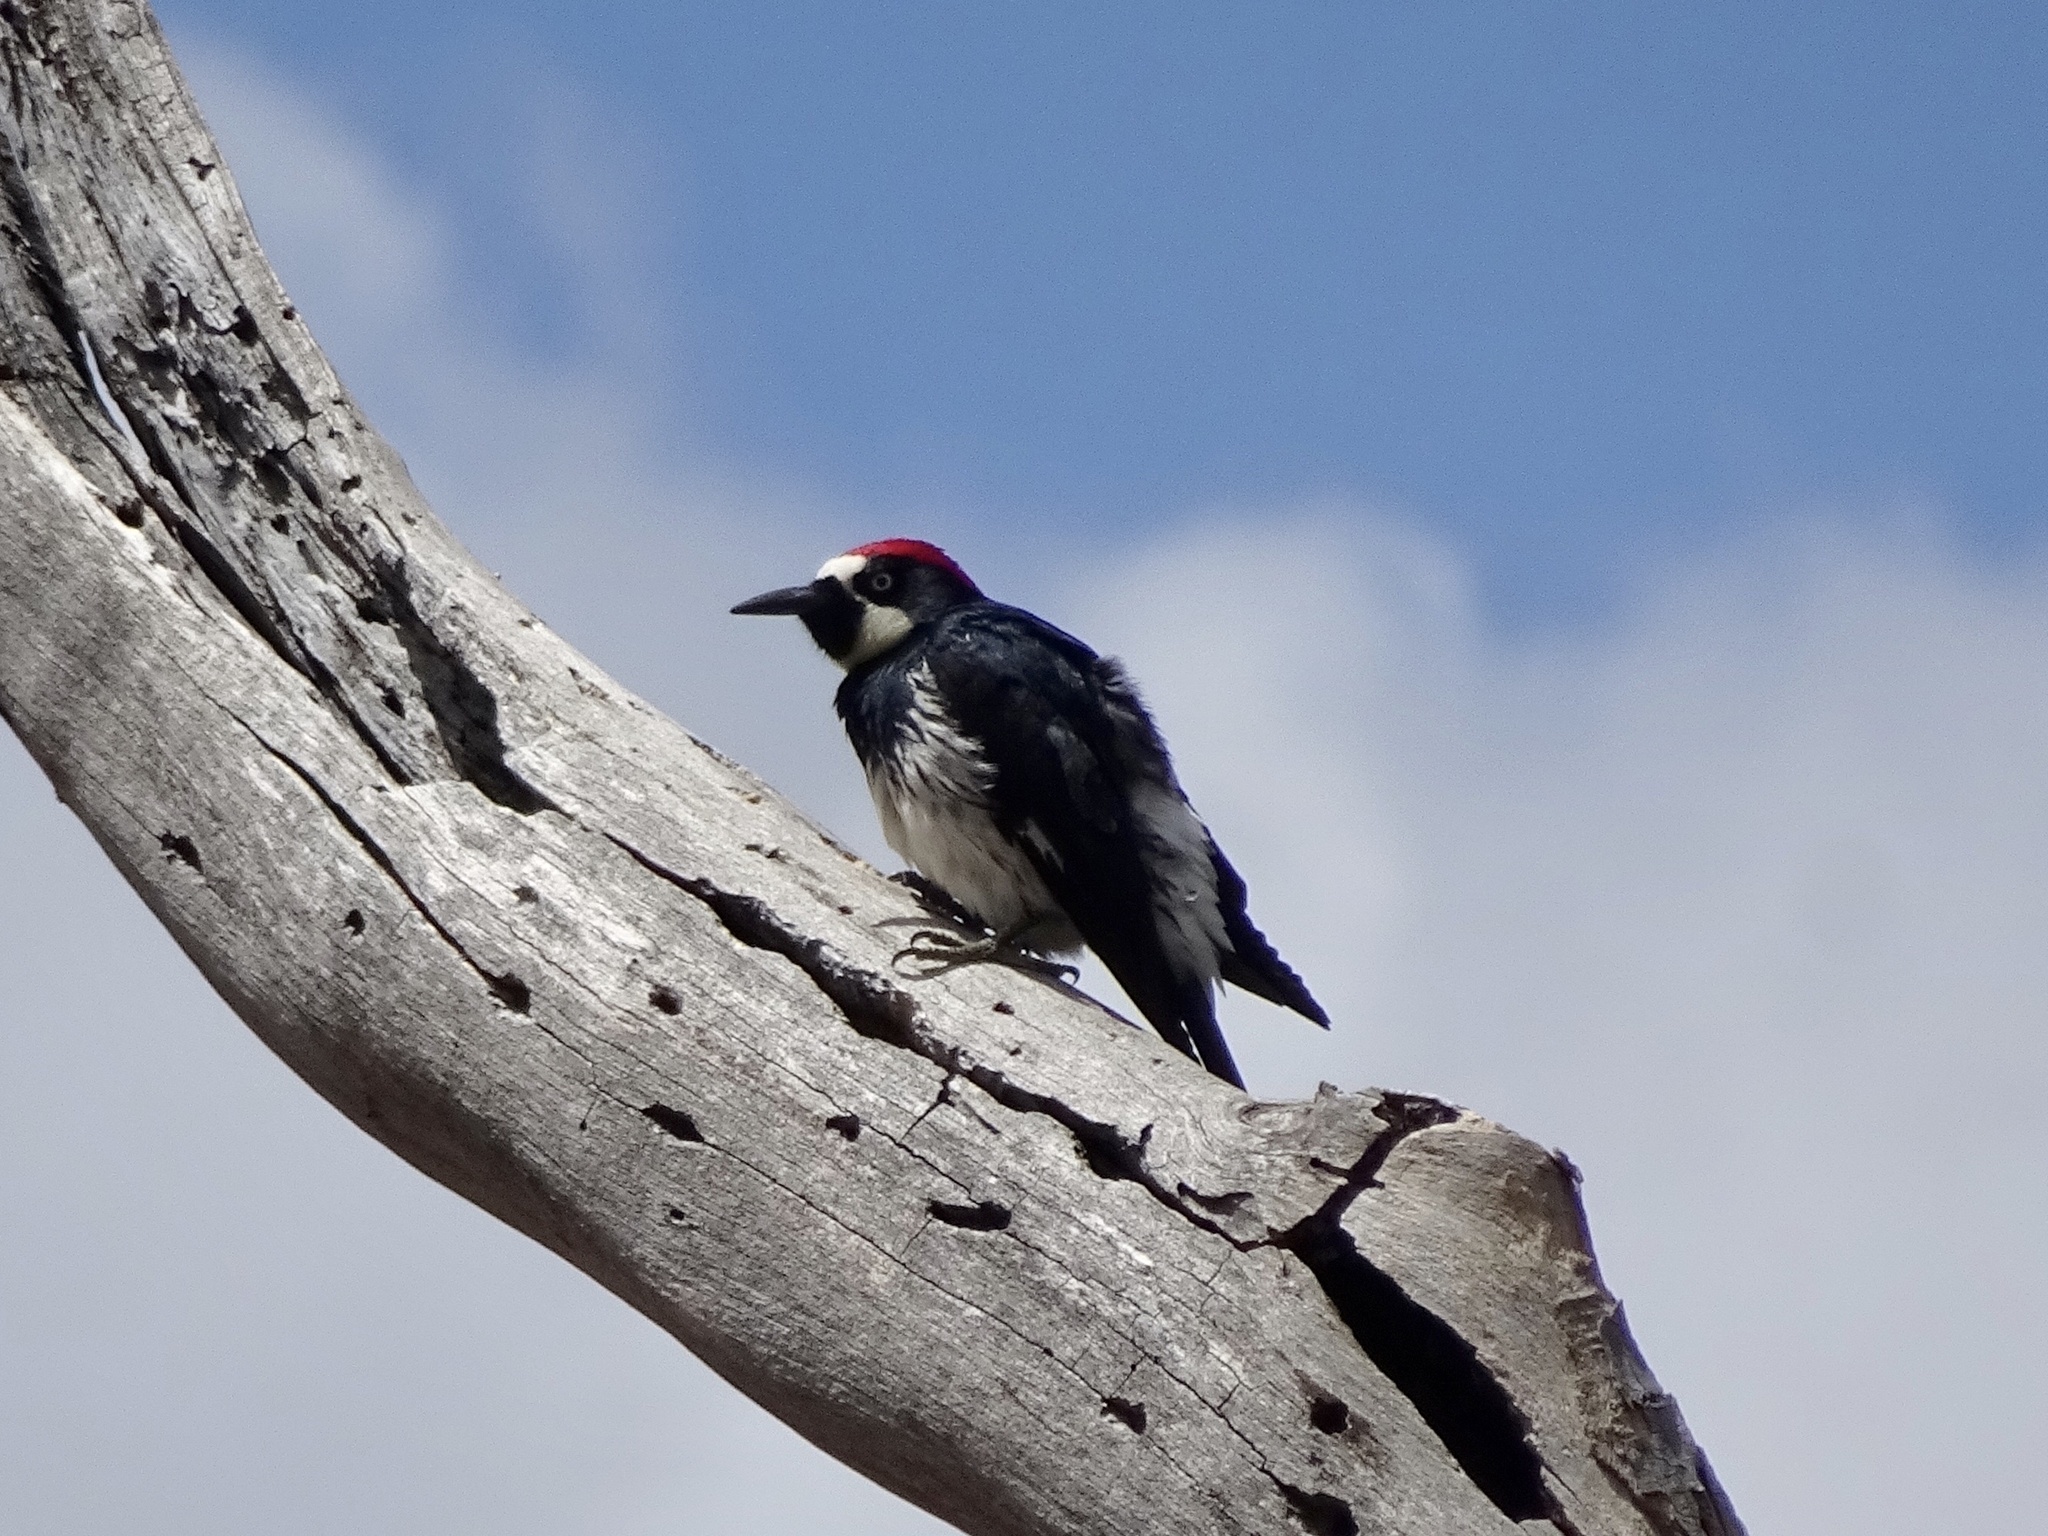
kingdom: Animalia
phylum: Chordata
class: Aves
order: Piciformes
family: Picidae
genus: Melanerpes
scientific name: Melanerpes formicivorus
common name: Acorn woodpecker
